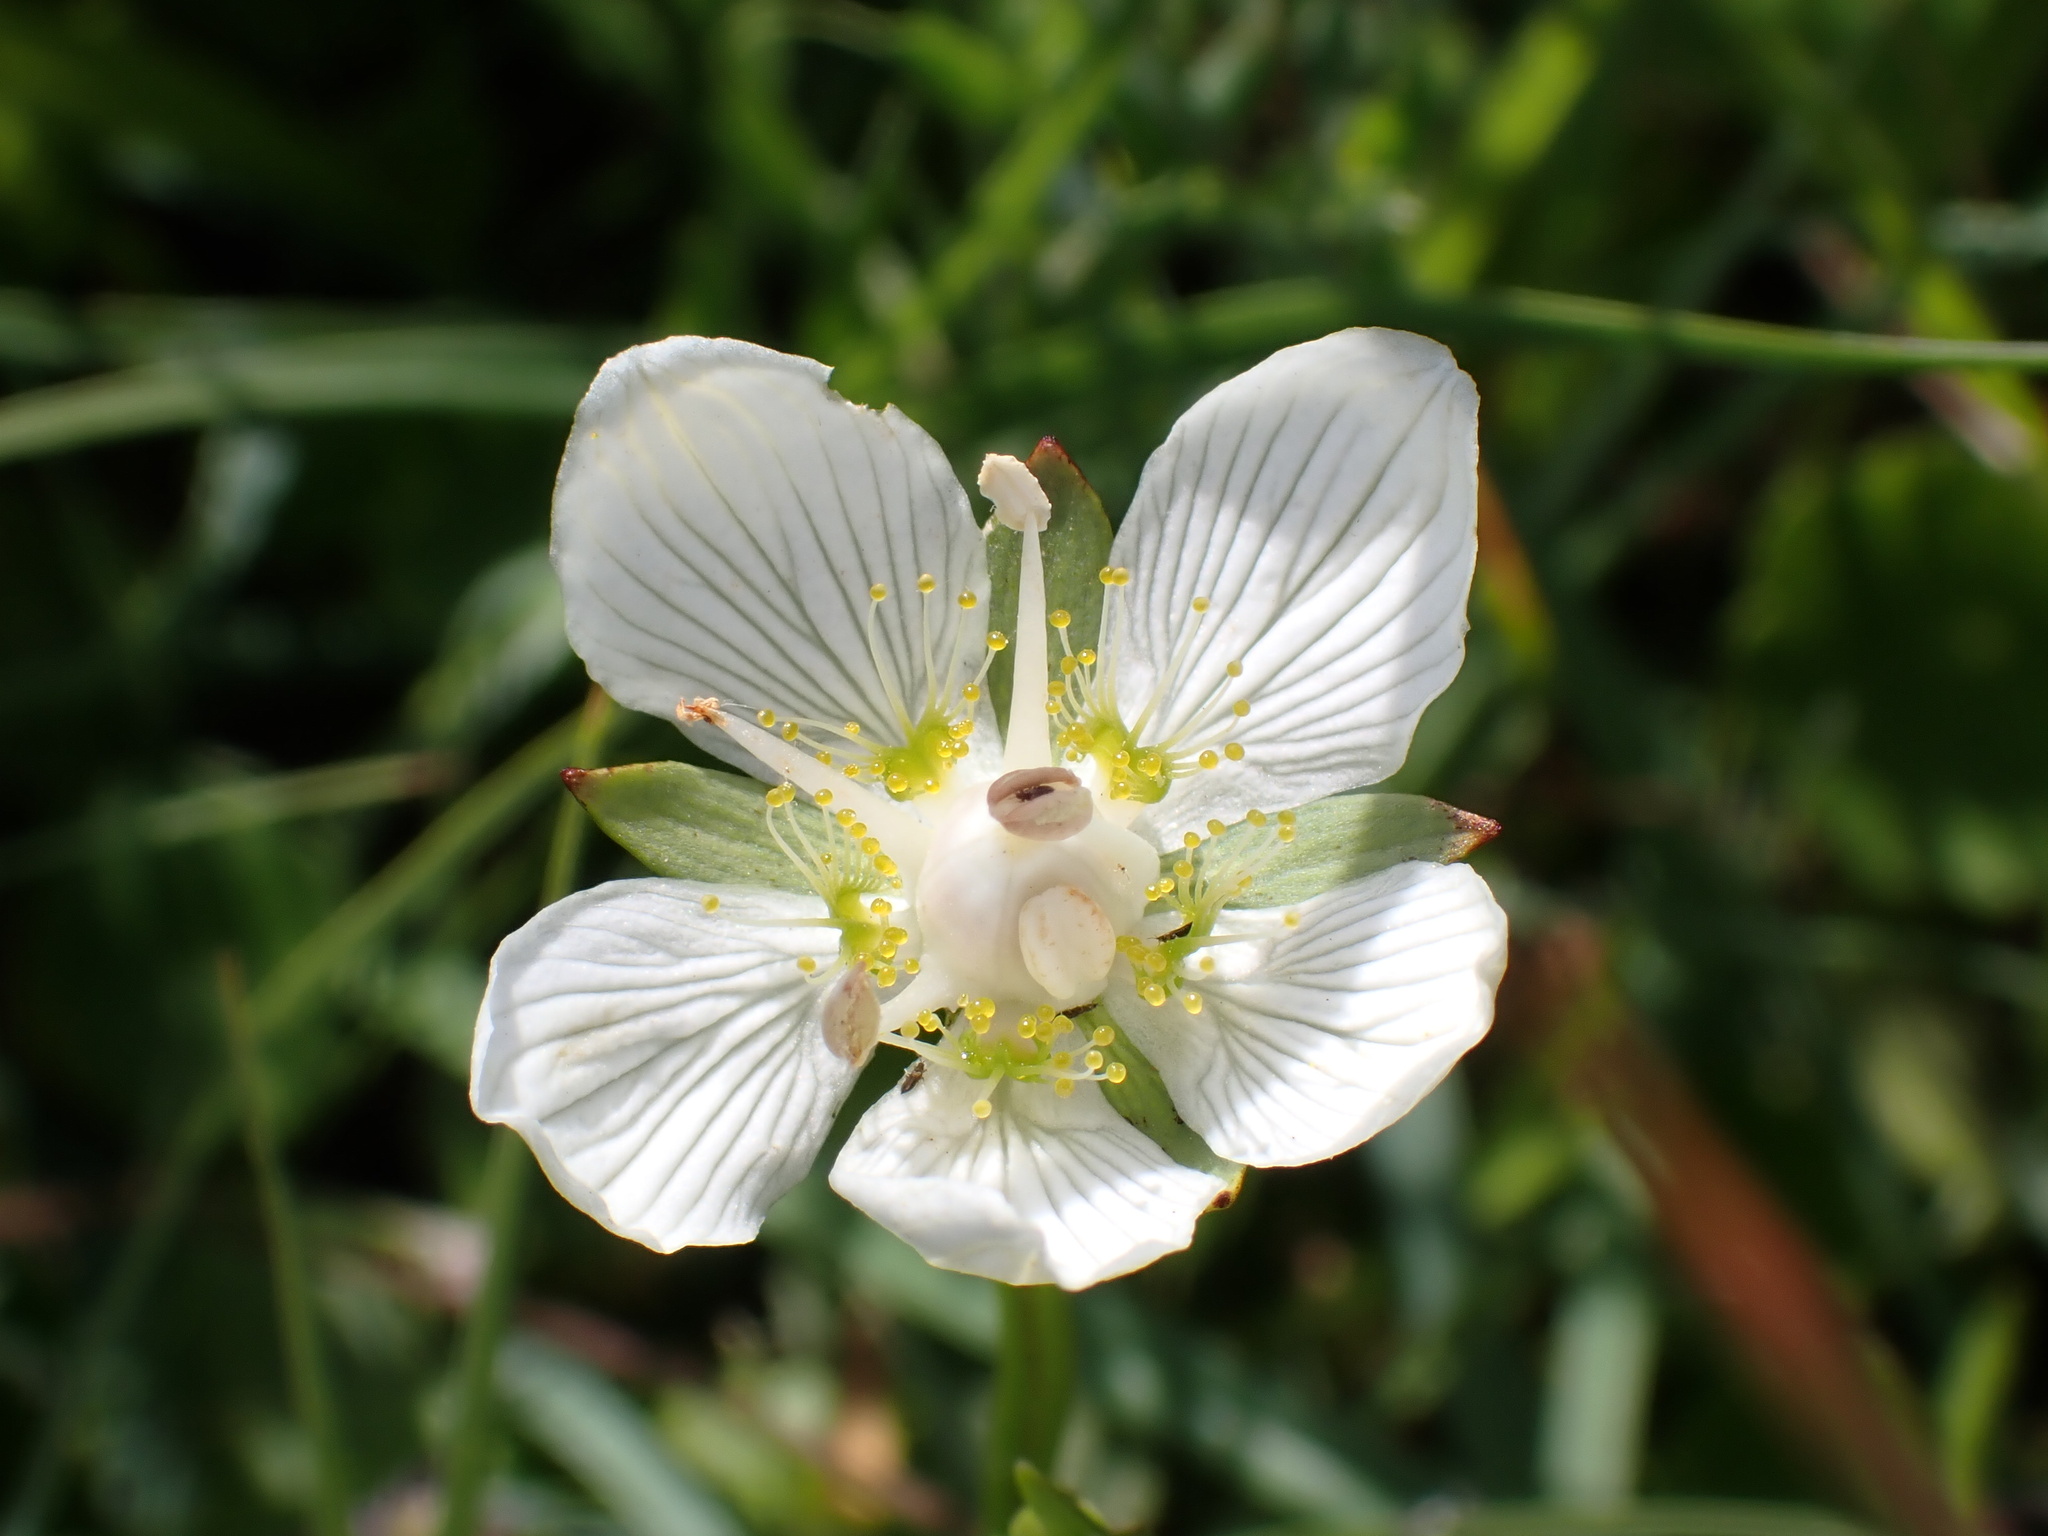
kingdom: Plantae
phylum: Tracheophyta
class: Magnoliopsida
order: Celastrales
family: Parnassiaceae
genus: Parnassia
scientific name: Parnassia palustris
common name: Grass-of-parnassus
